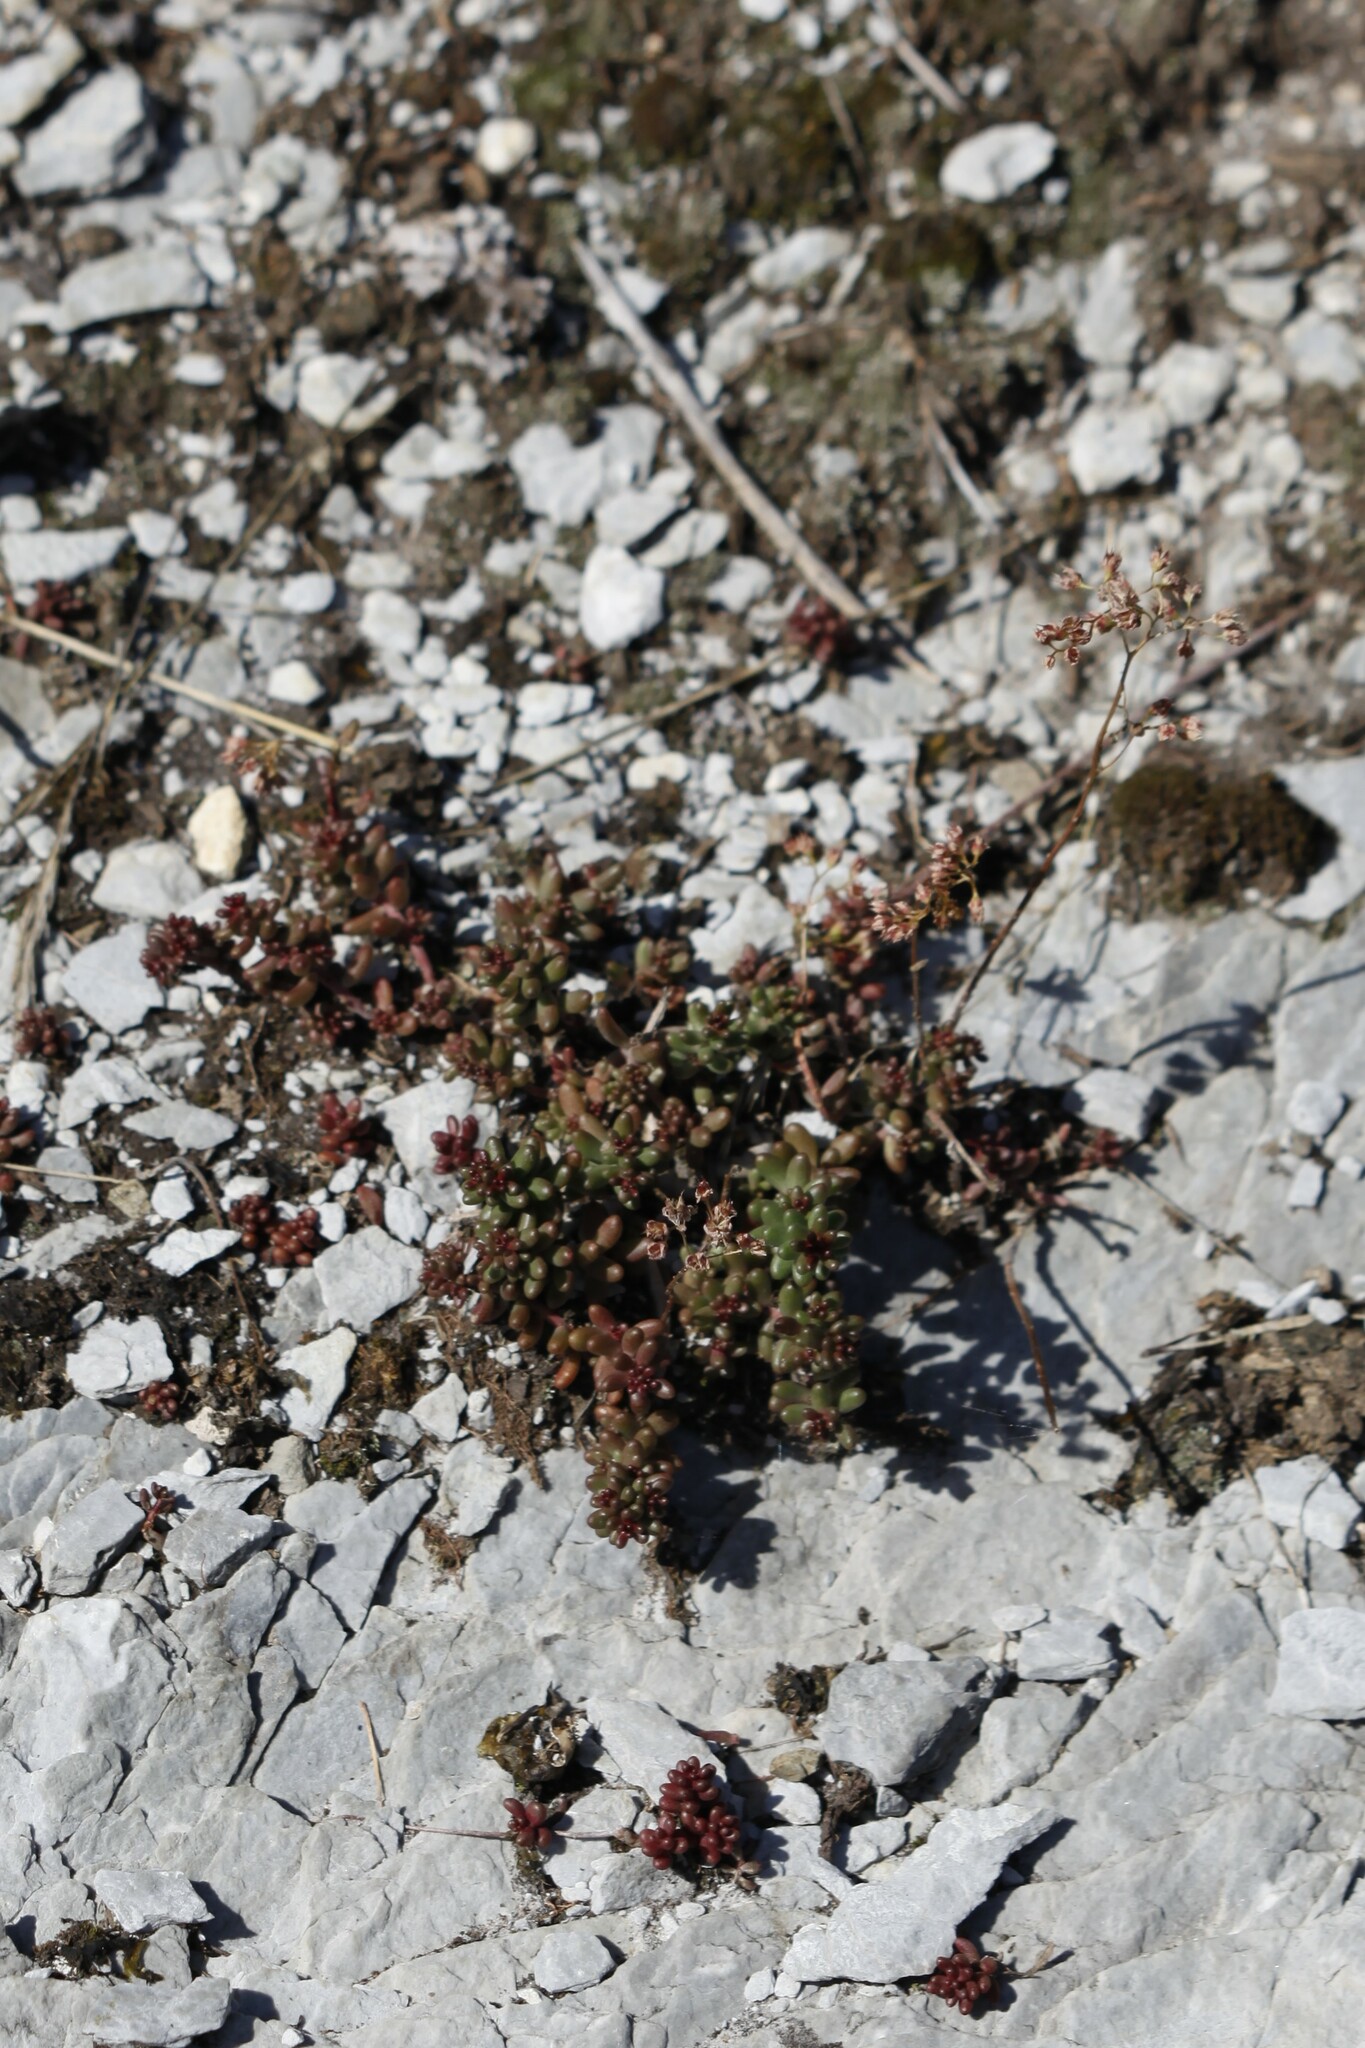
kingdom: Plantae
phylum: Tracheophyta
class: Magnoliopsida
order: Saxifragales
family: Crassulaceae
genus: Sedum
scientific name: Sedum album
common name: White stonecrop
